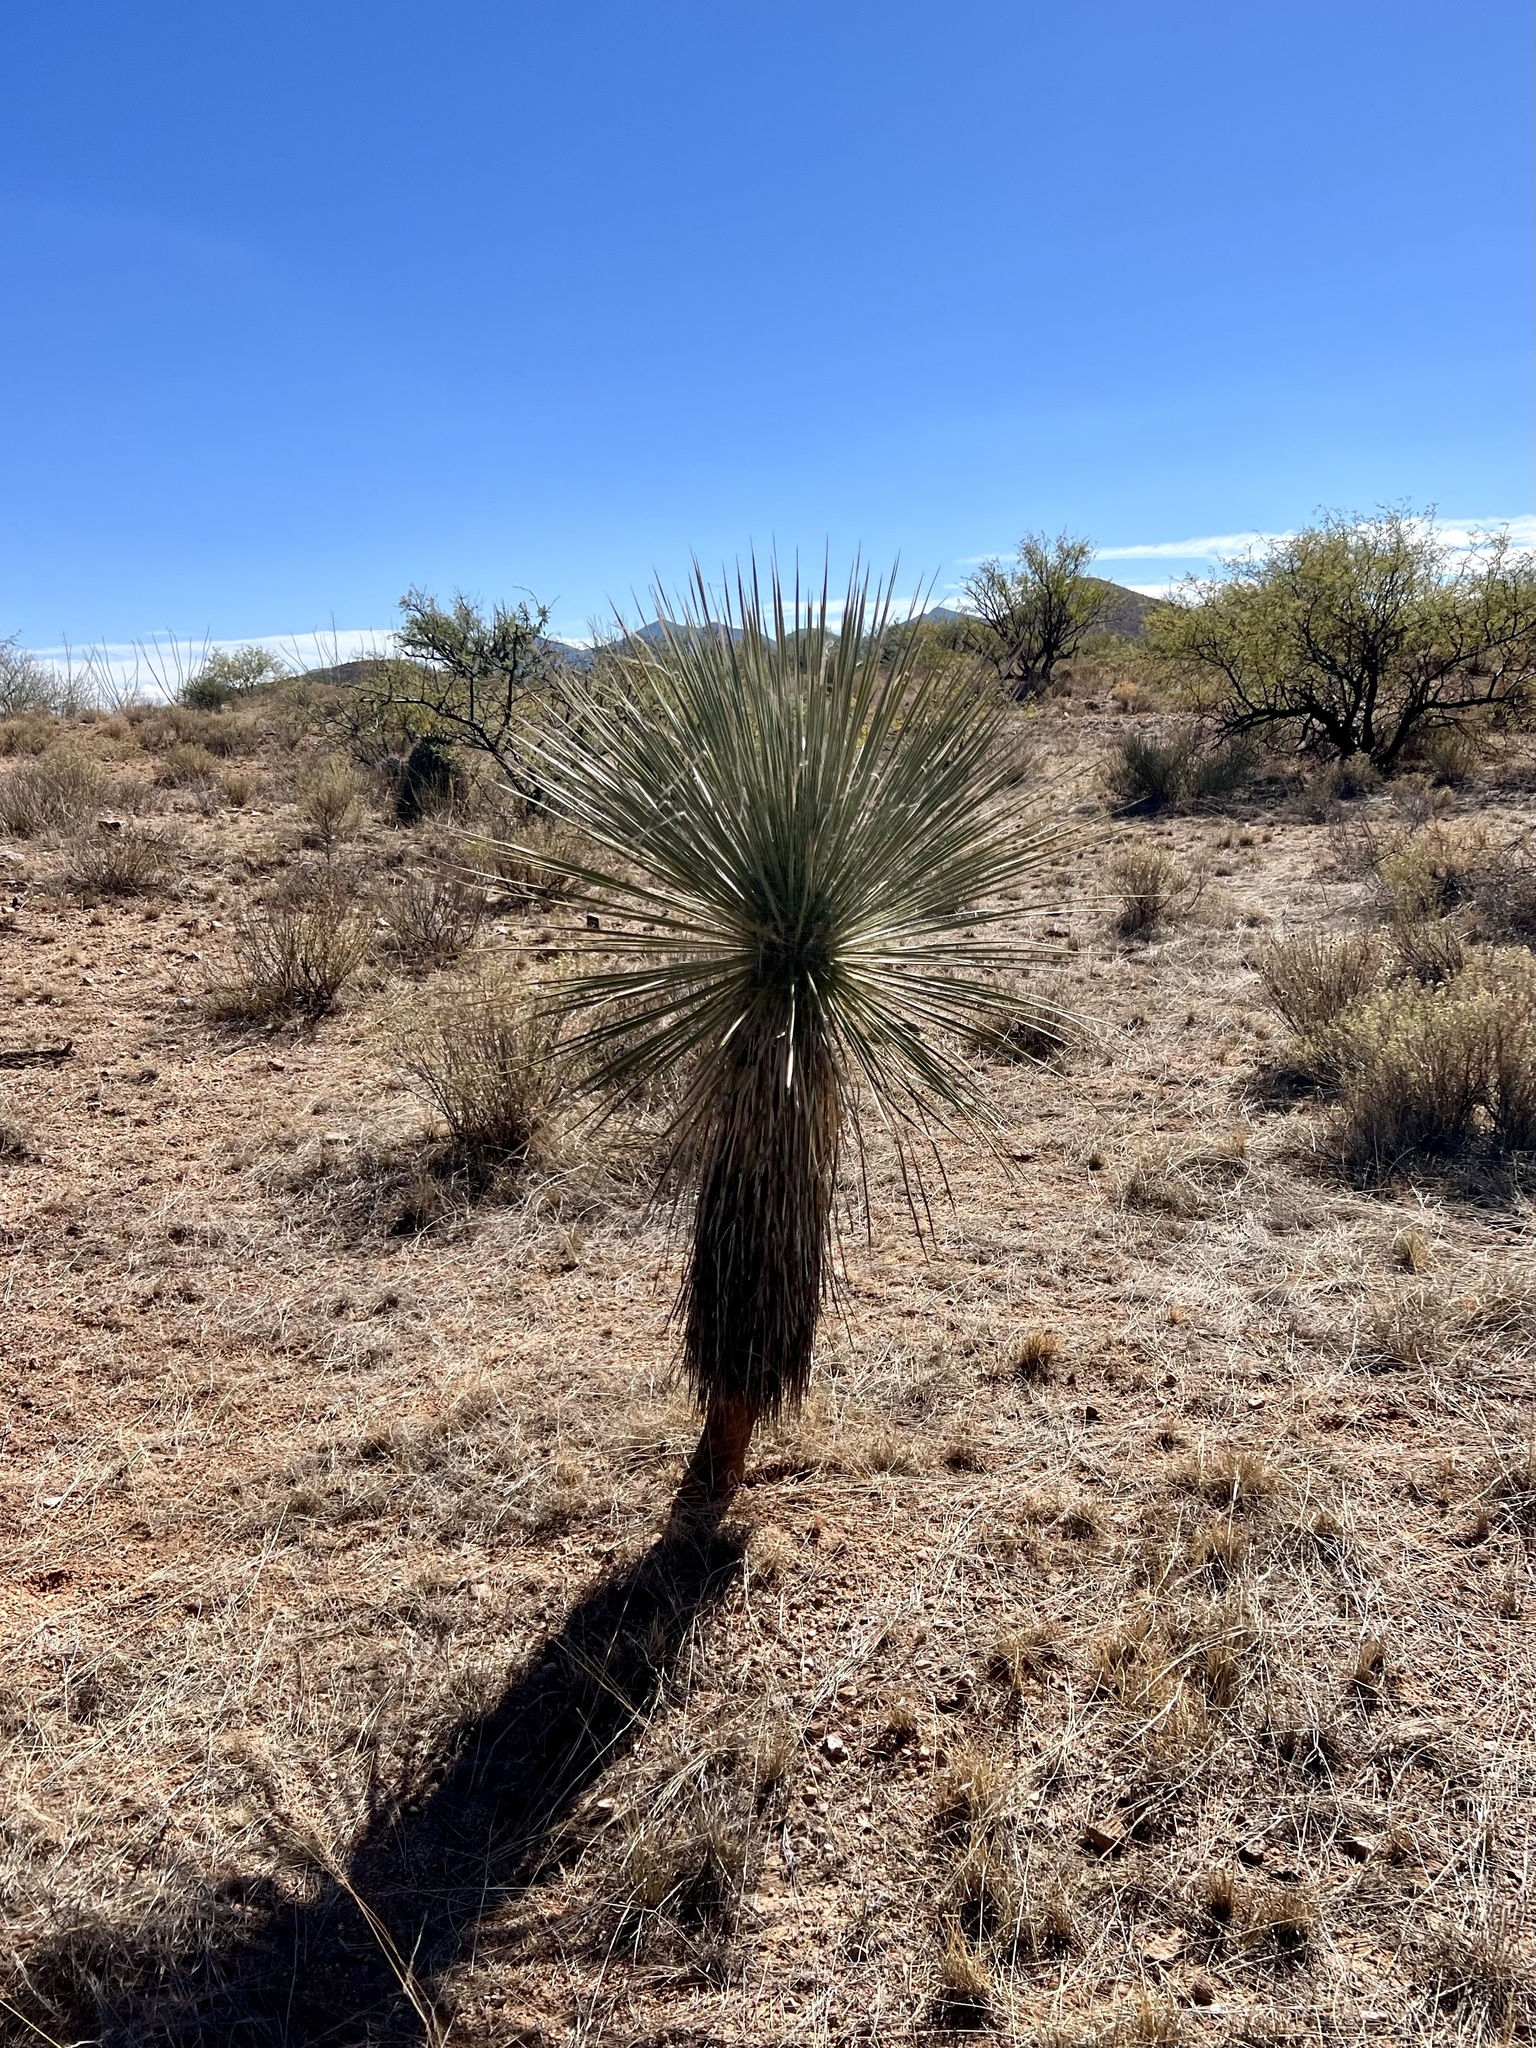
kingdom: Plantae
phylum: Tracheophyta
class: Liliopsida
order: Asparagales
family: Asparagaceae
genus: Yucca
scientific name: Yucca elata
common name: Palmella
